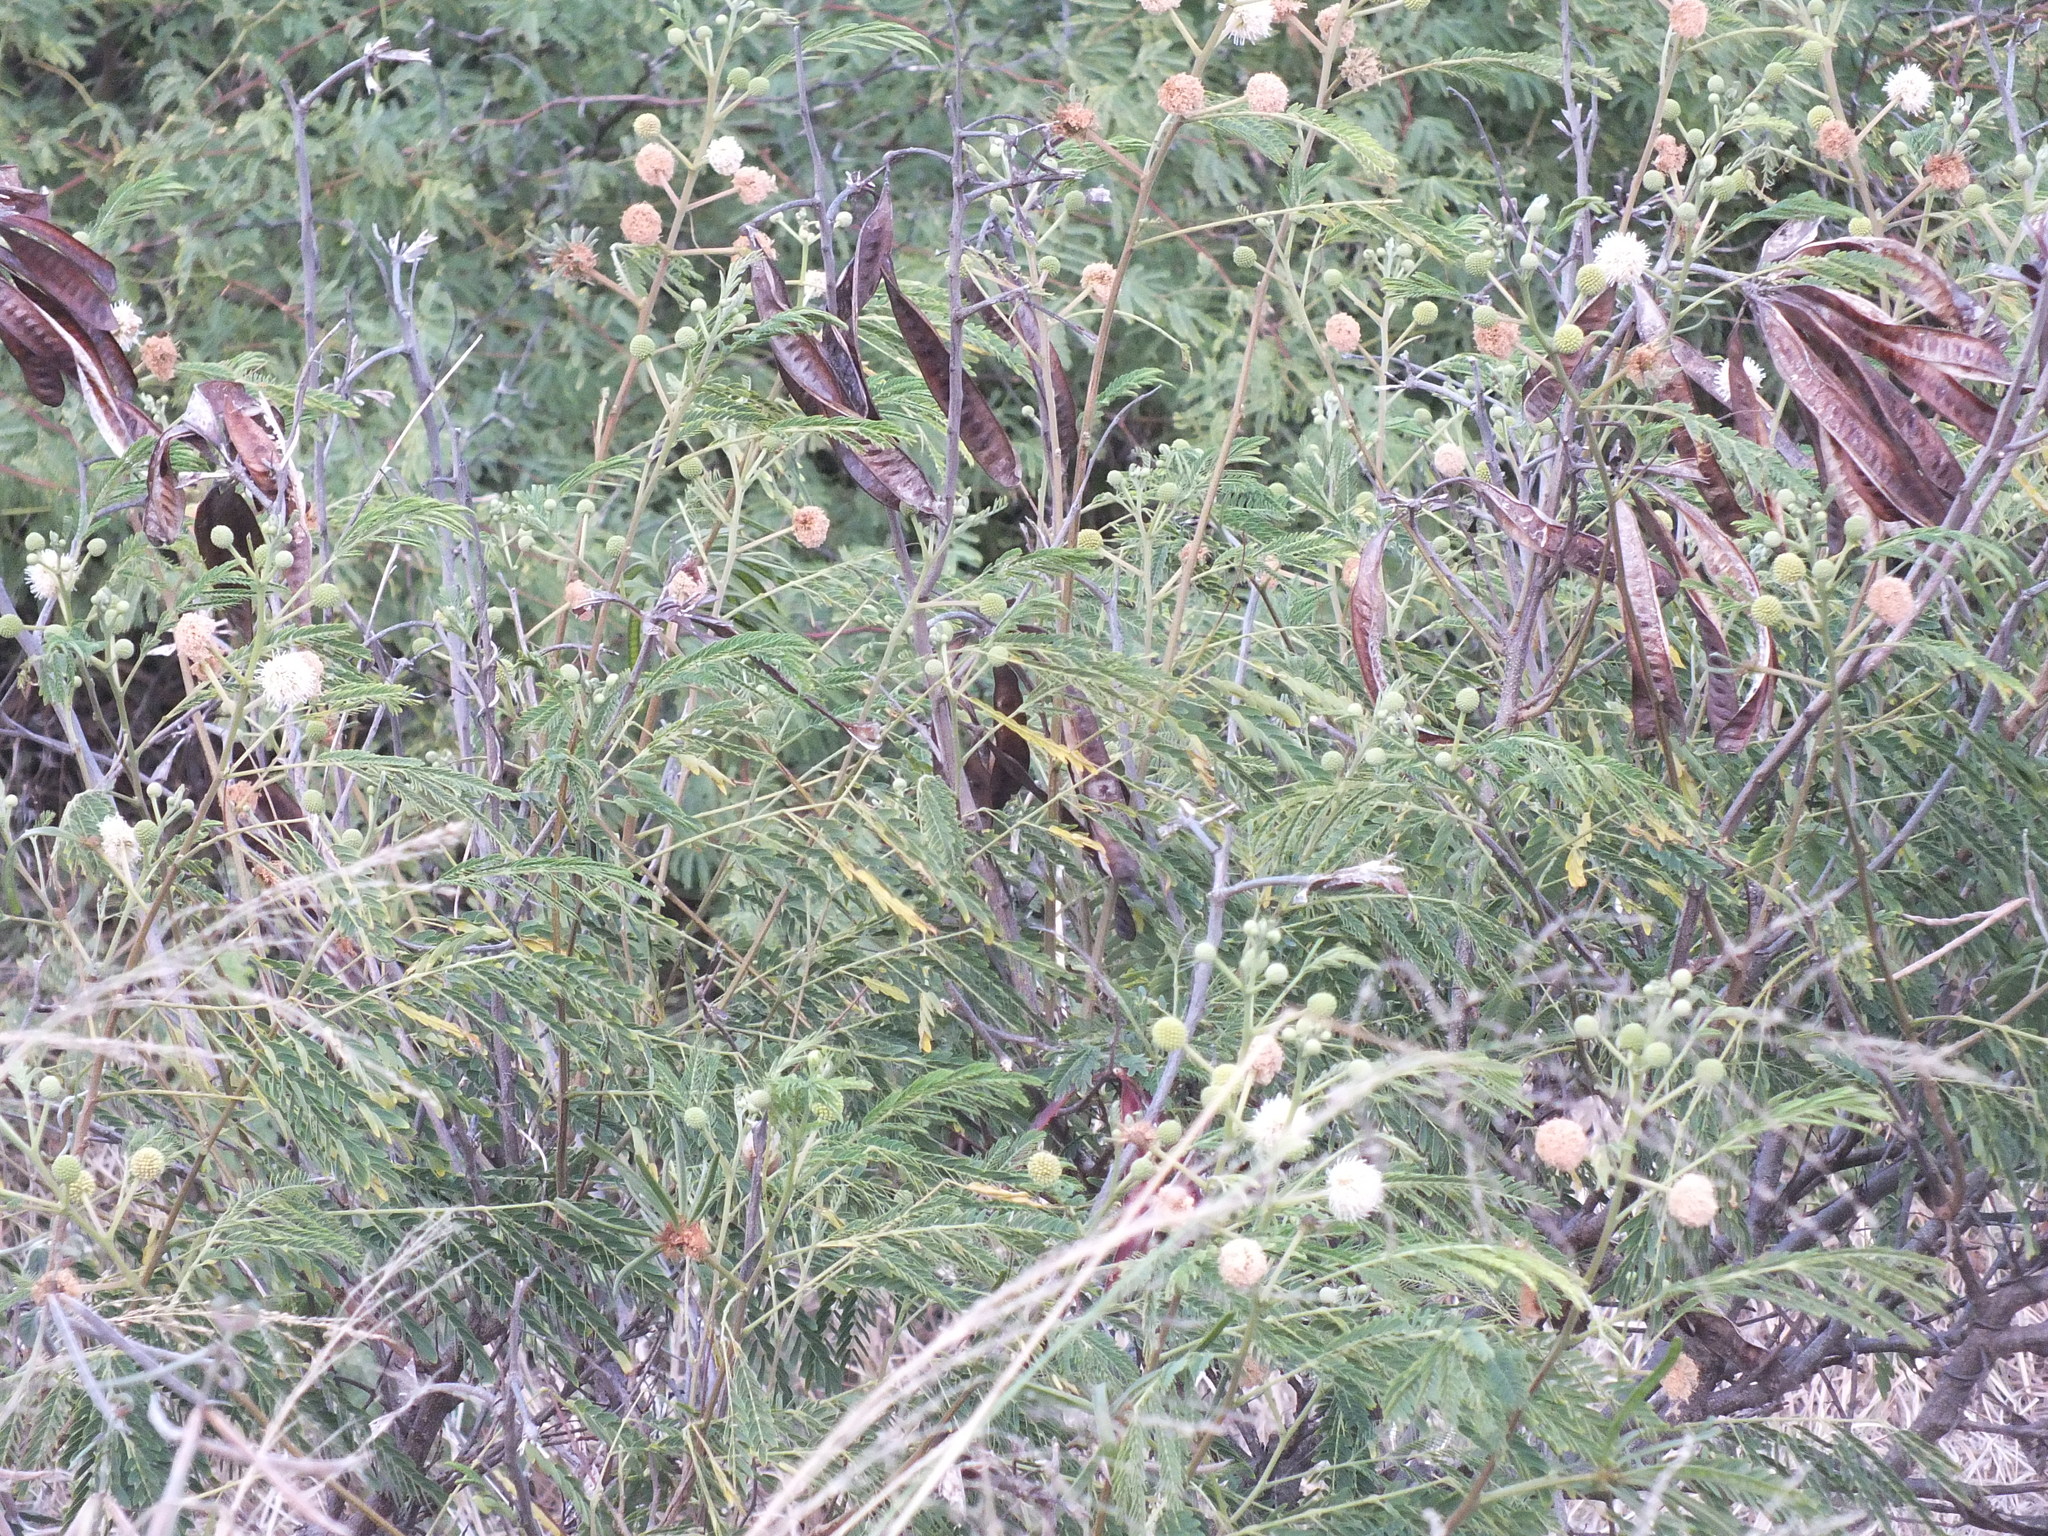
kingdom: Plantae
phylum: Tracheophyta
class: Magnoliopsida
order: Fabales
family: Fabaceae
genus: Leucaena
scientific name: Leucaena leucocephala
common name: White leadtree
